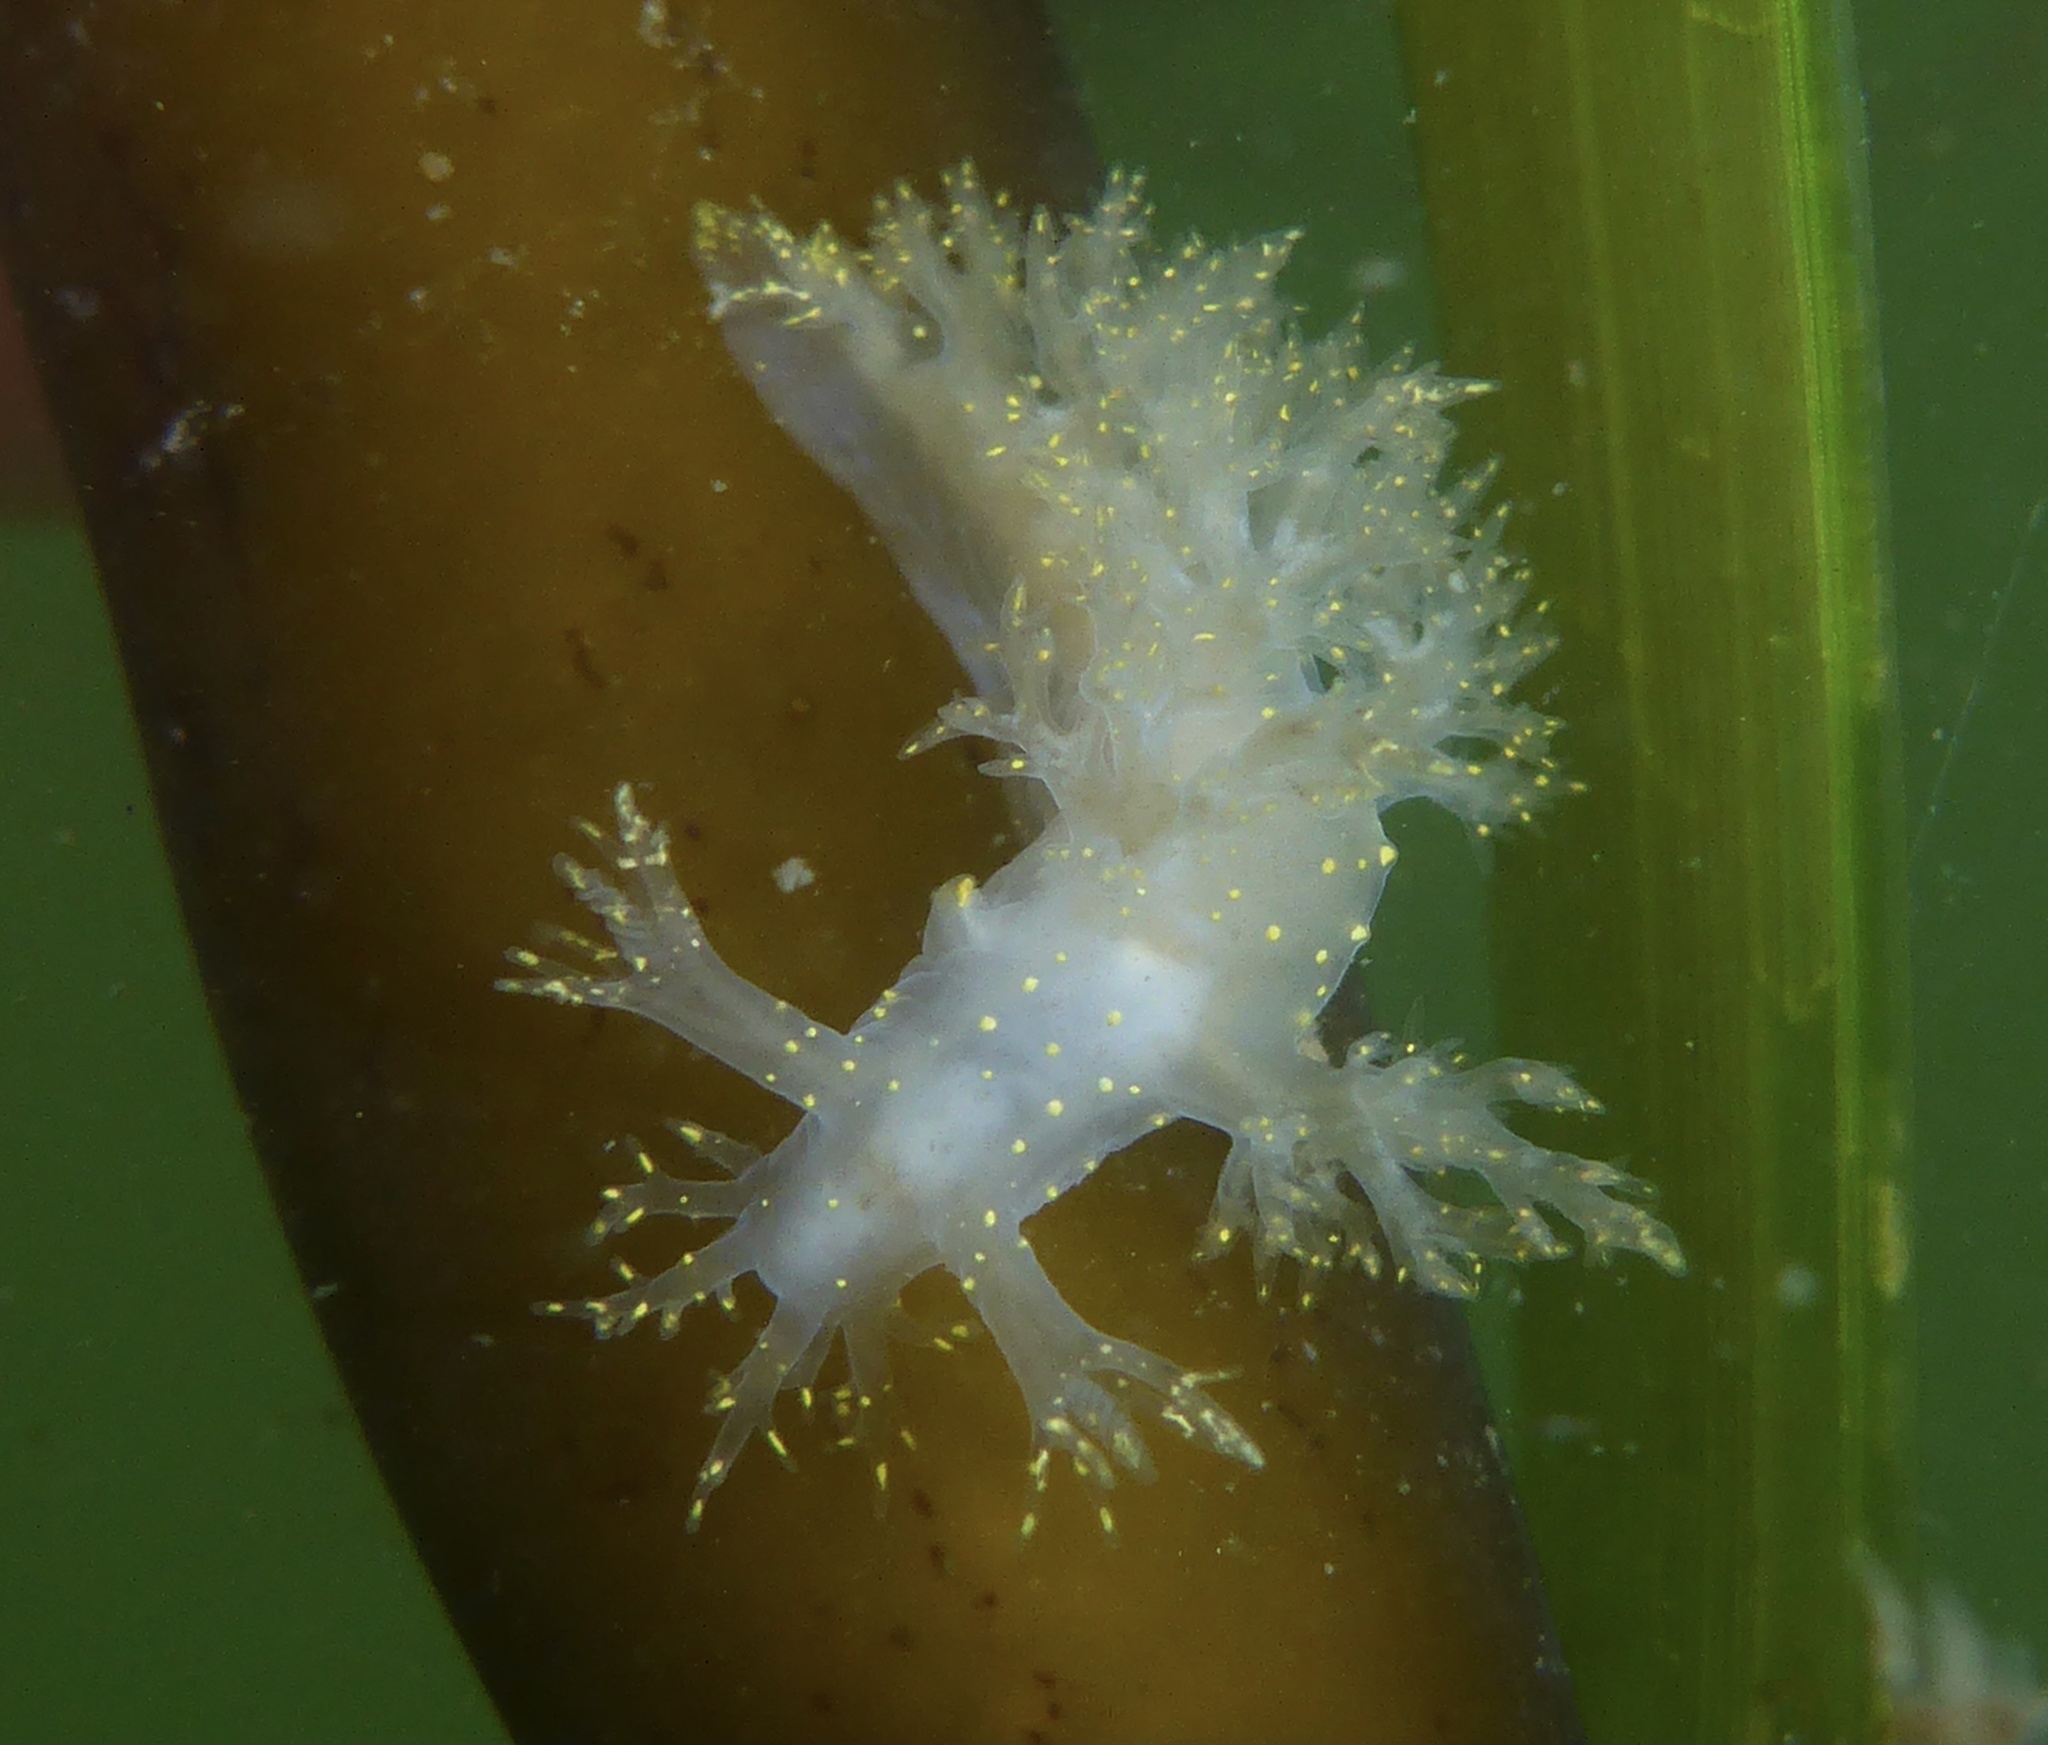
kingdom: Animalia
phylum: Mollusca
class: Gastropoda
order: Nudibranchia
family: Dendronotidae
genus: Dendronotus
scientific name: Dendronotus venustus
